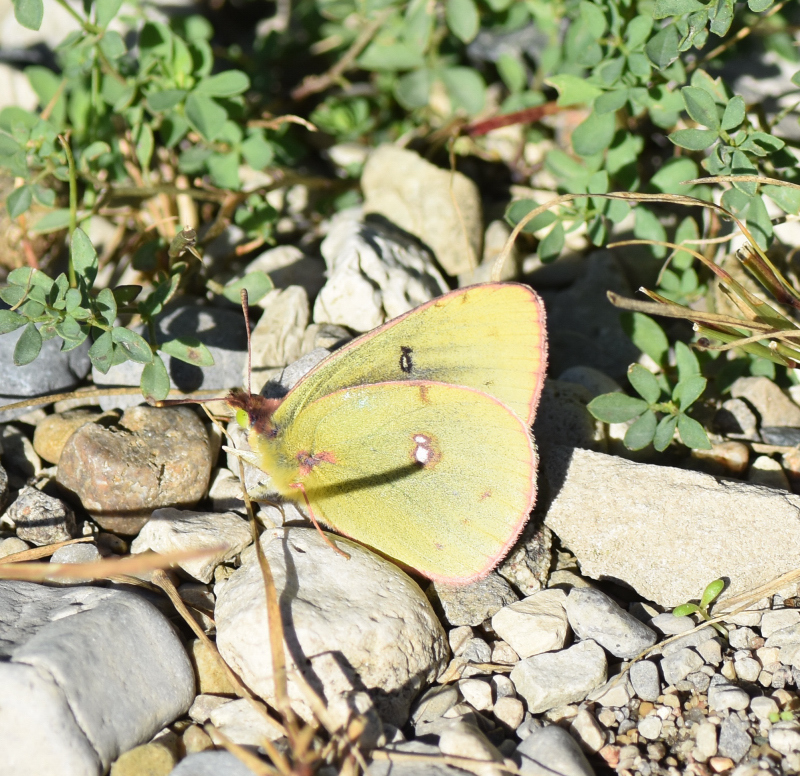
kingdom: Animalia
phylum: Arthropoda
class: Insecta
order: Lepidoptera
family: Pieridae
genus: Colias
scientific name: Colias philodice
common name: Clouded sulphur
